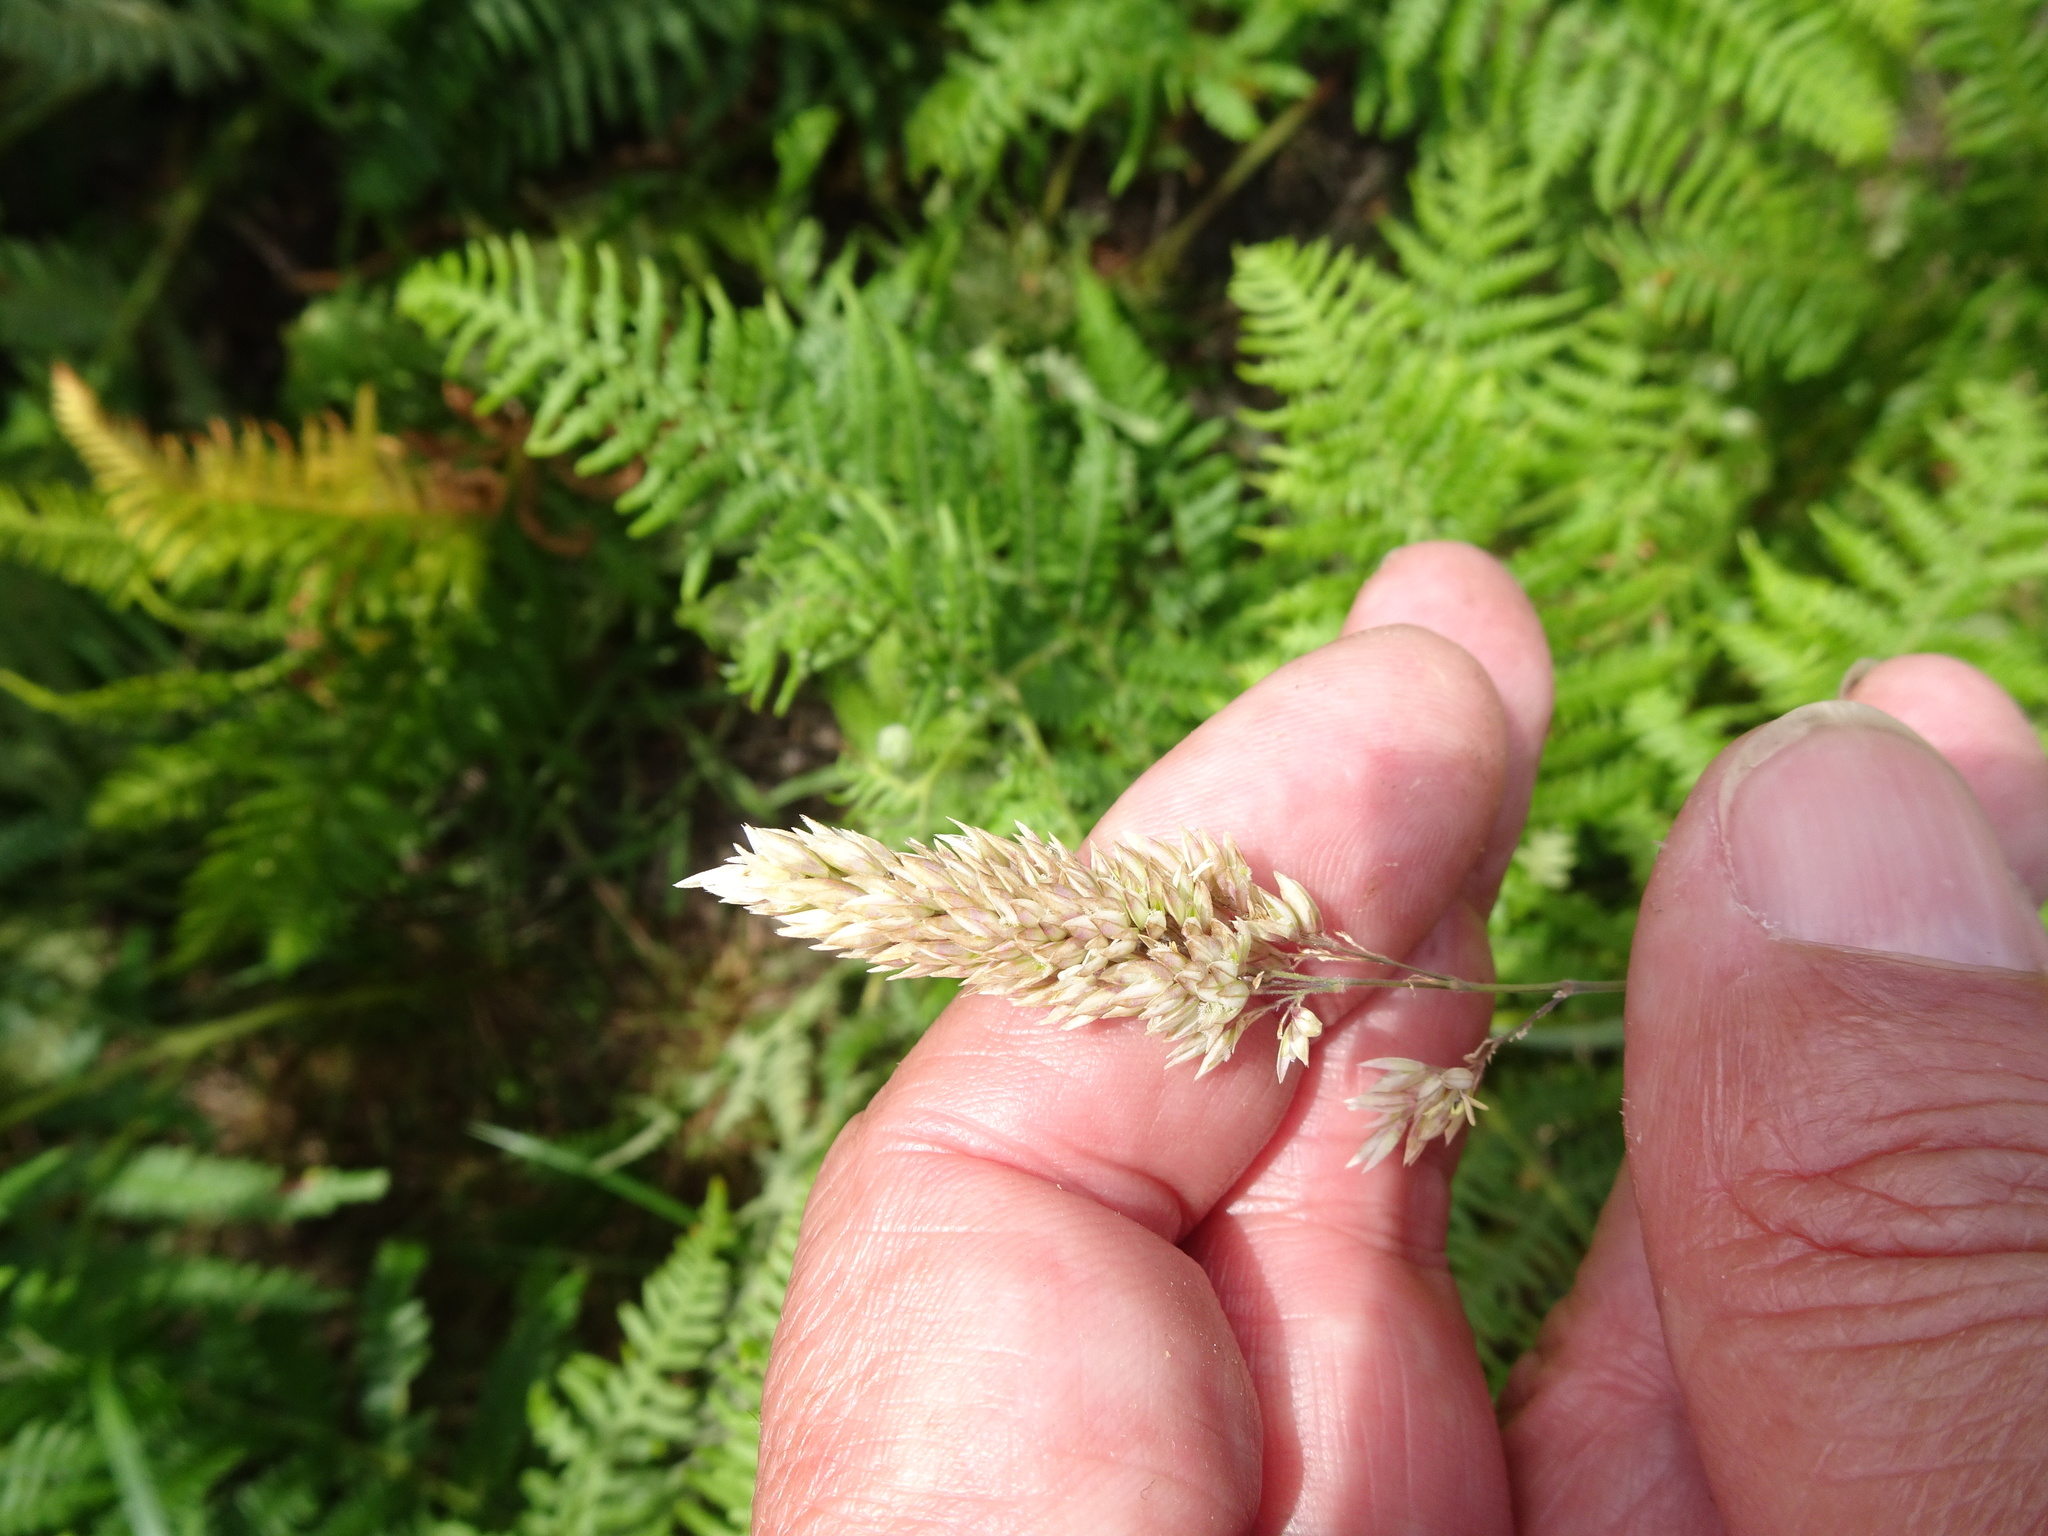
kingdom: Plantae
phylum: Tracheophyta
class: Liliopsida
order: Poales
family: Poaceae
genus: Holcus
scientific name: Holcus lanatus
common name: Yorkshire-fog
